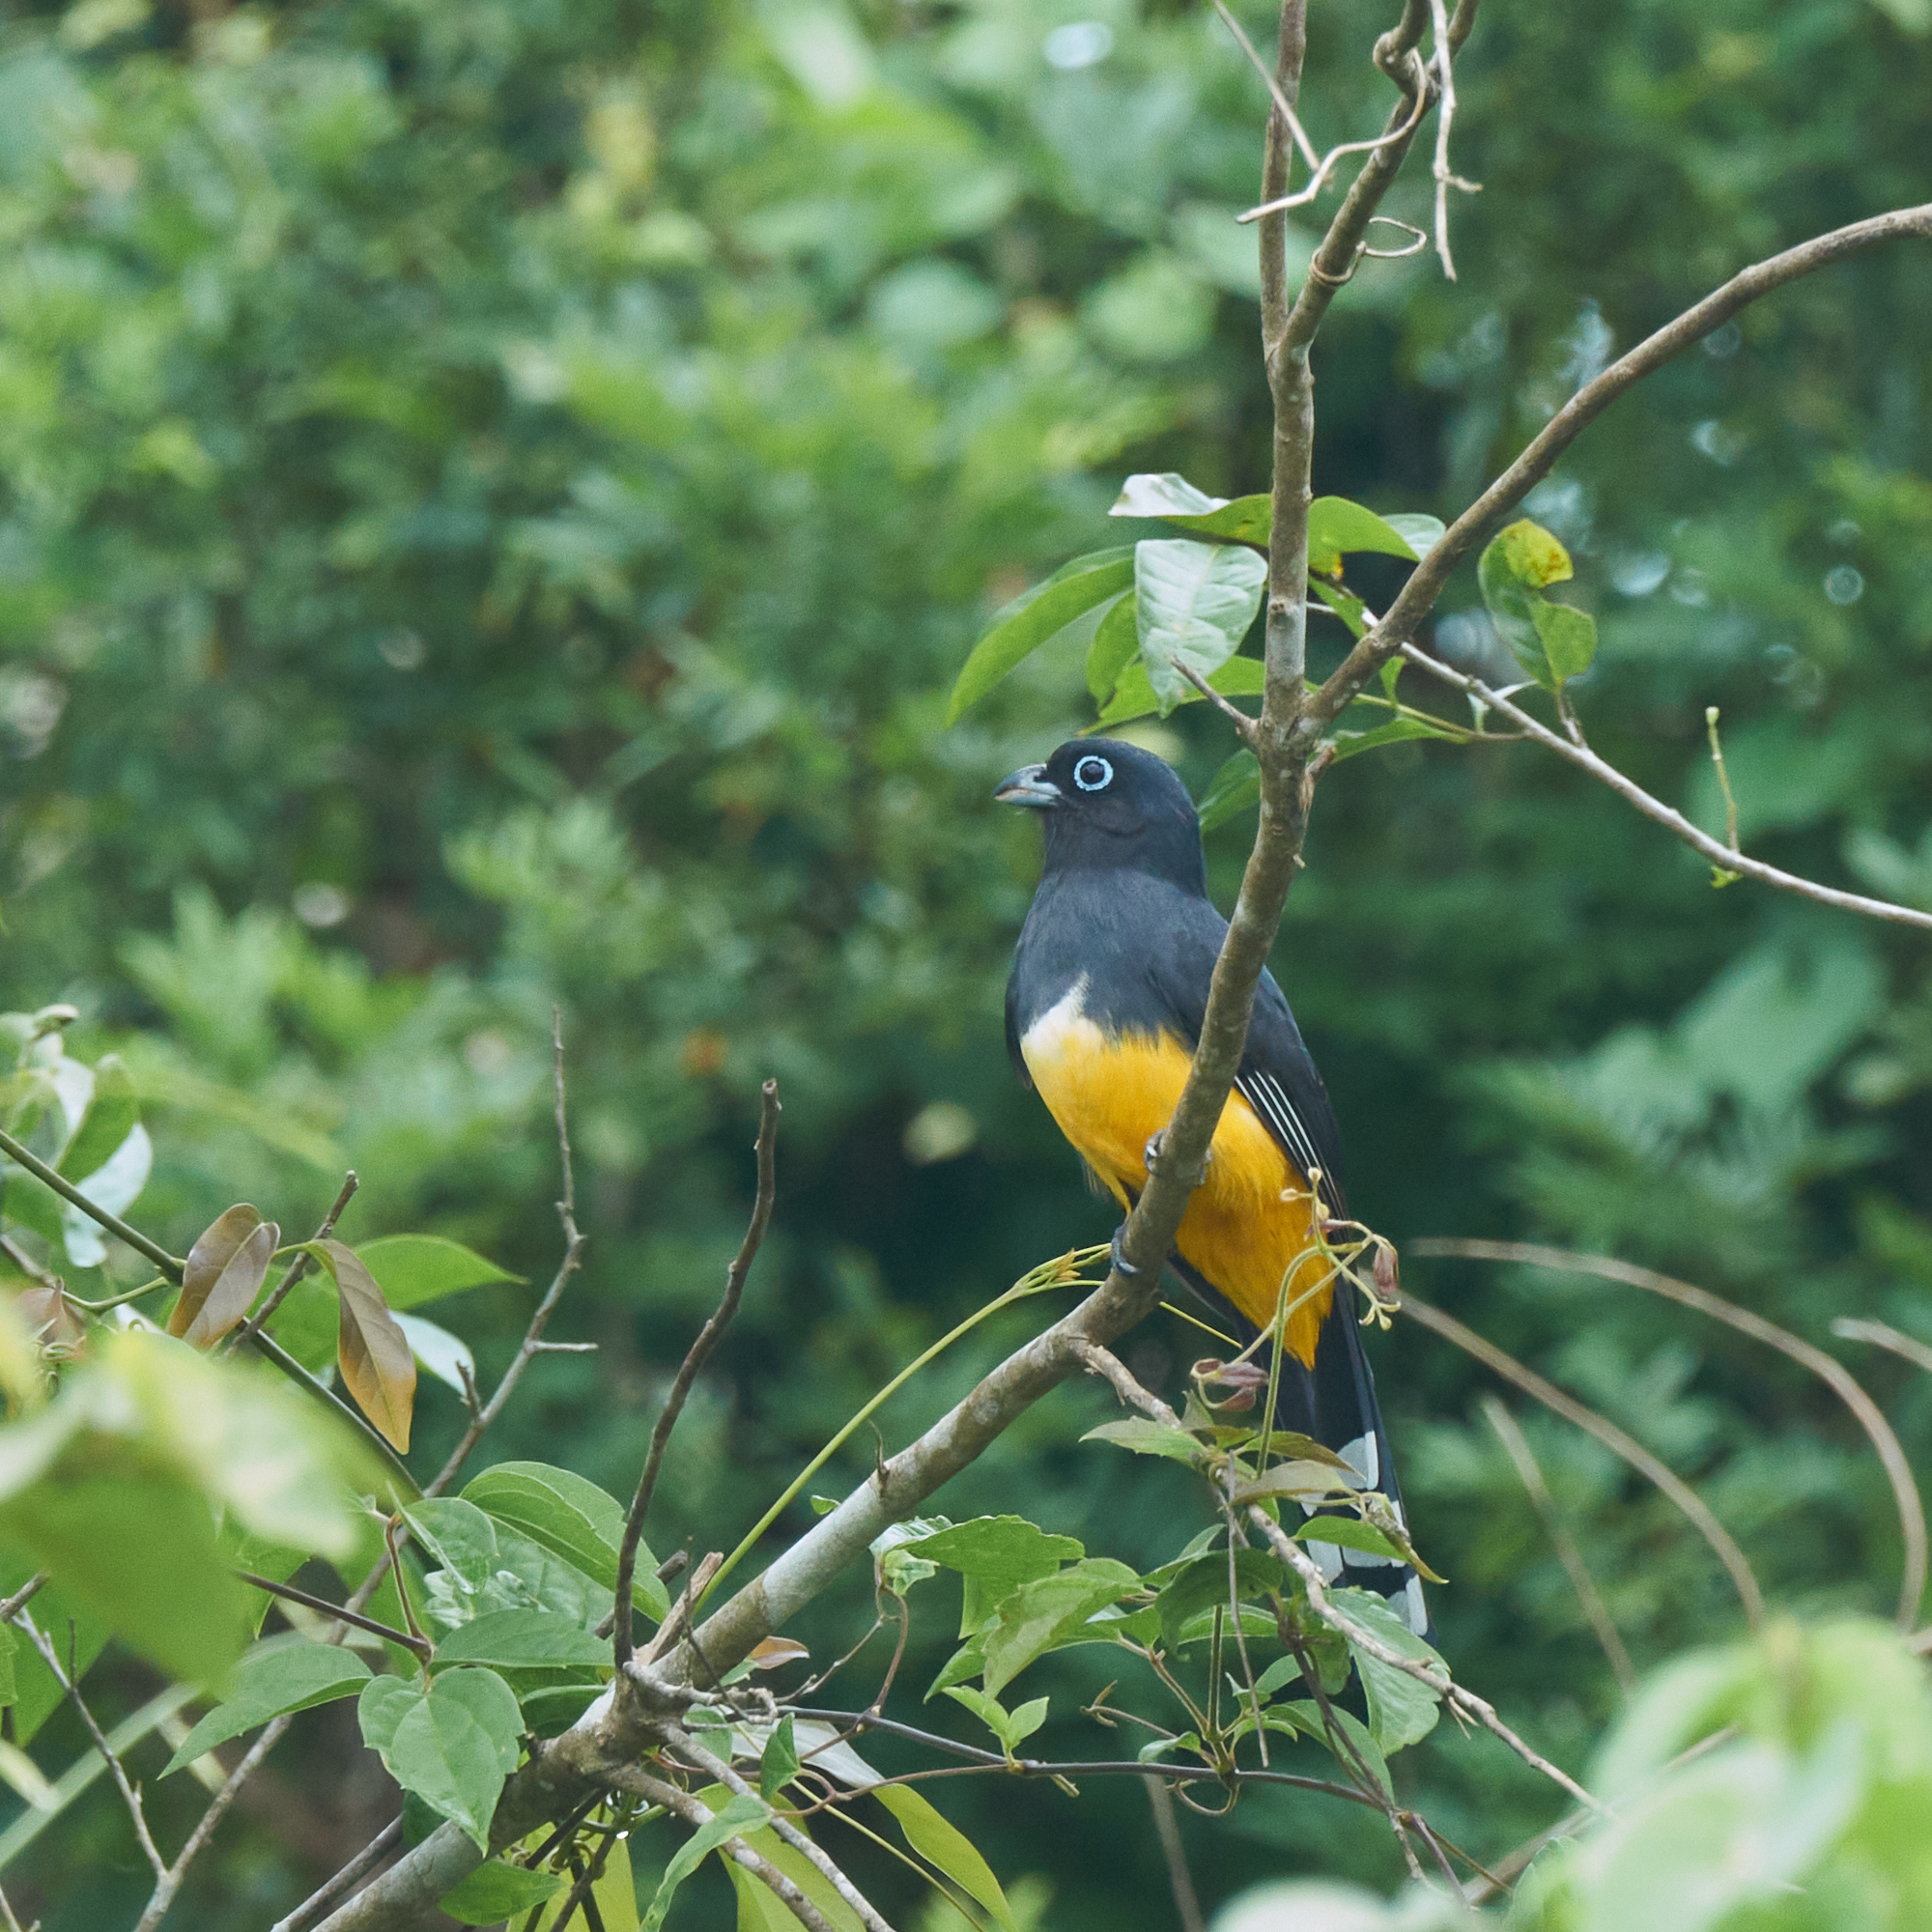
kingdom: Animalia
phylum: Chordata
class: Aves
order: Trogoniformes
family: Trogonidae
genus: Trogon
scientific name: Trogon melanocephalus
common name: Black-headed trogon
